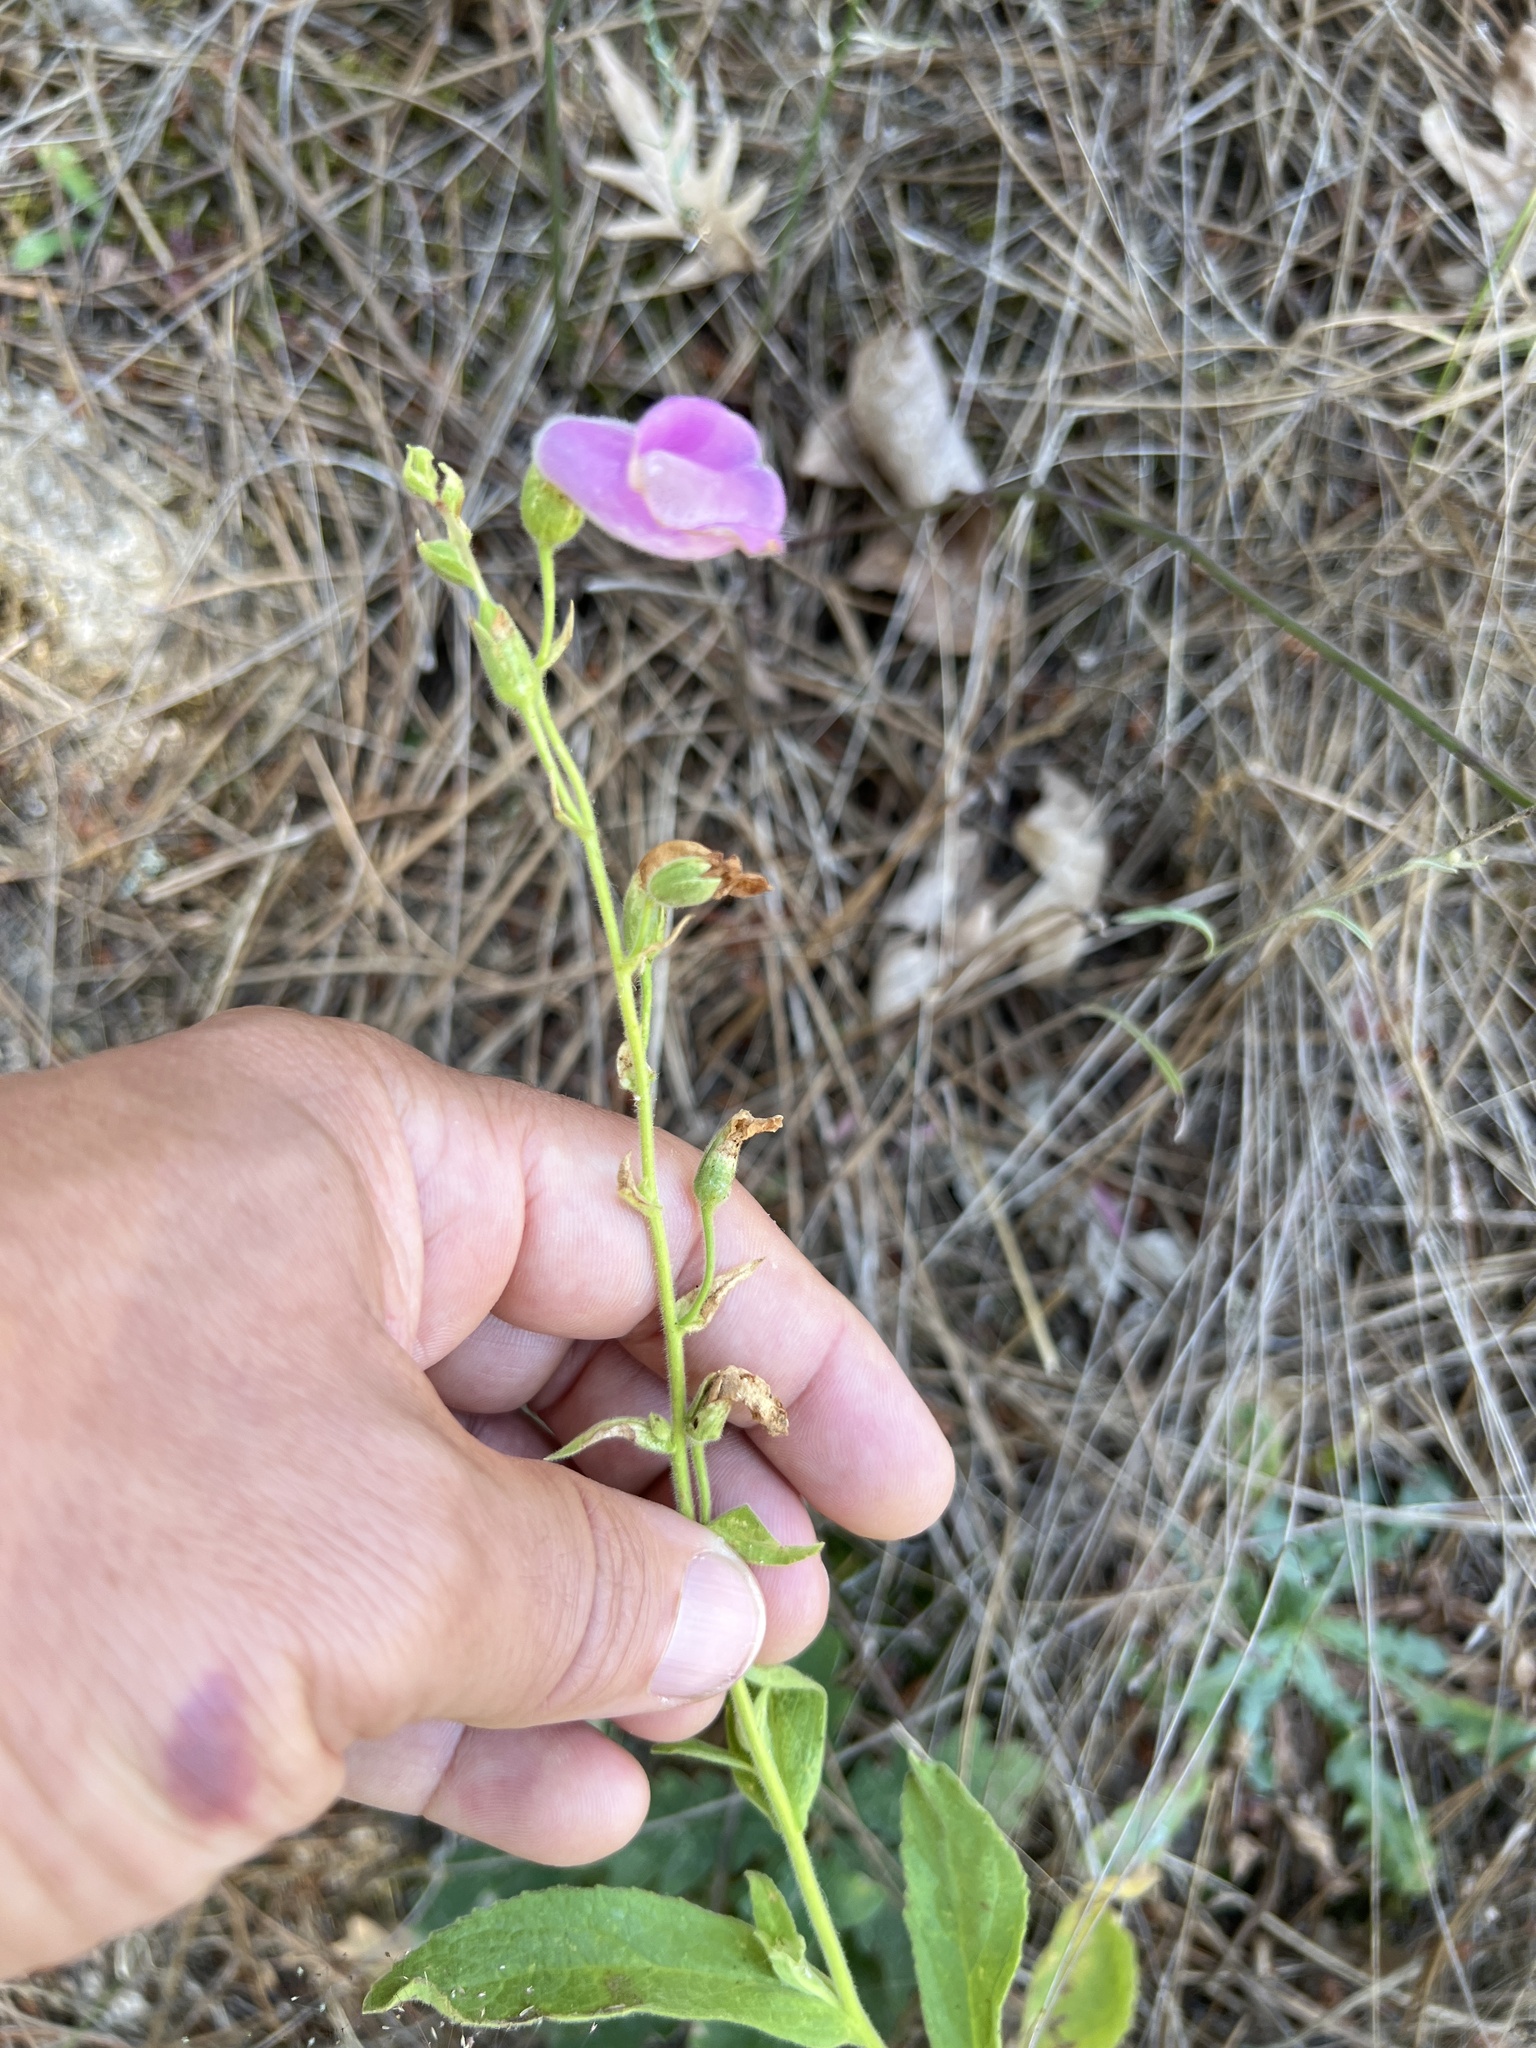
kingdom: Plantae
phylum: Tracheophyta
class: Magnoliopsida
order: Lamiales
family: Plantaginaceae
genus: Digitalis
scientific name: Digitalis thapsi
